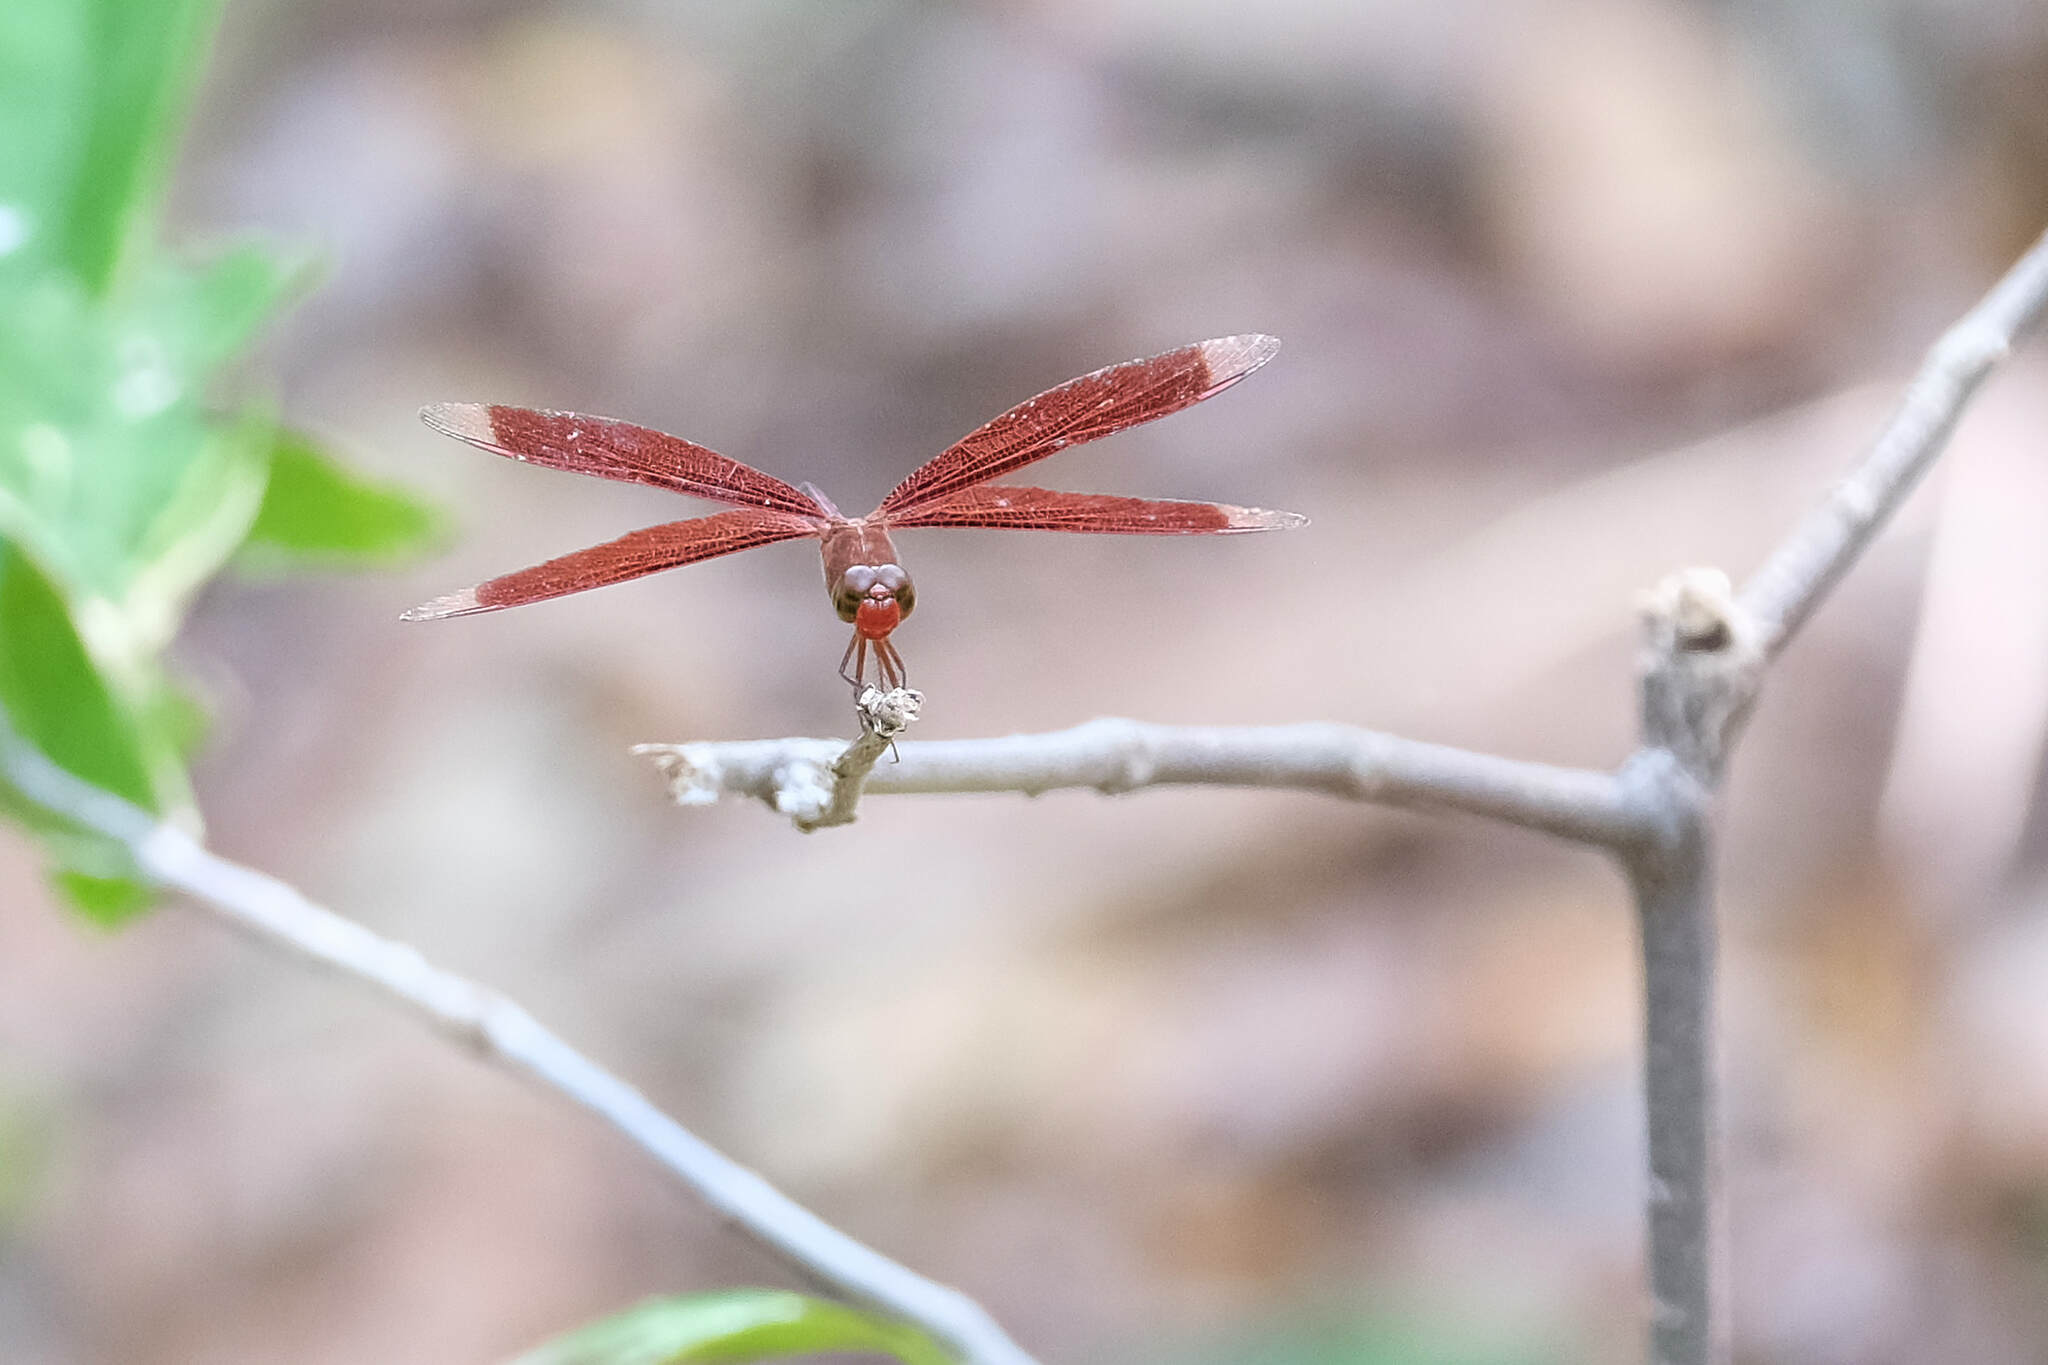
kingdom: Animalia
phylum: Arthropoda
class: Insecta
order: Odonata
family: Libellulidae
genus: Neurothemis
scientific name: Neurothemis terminata
